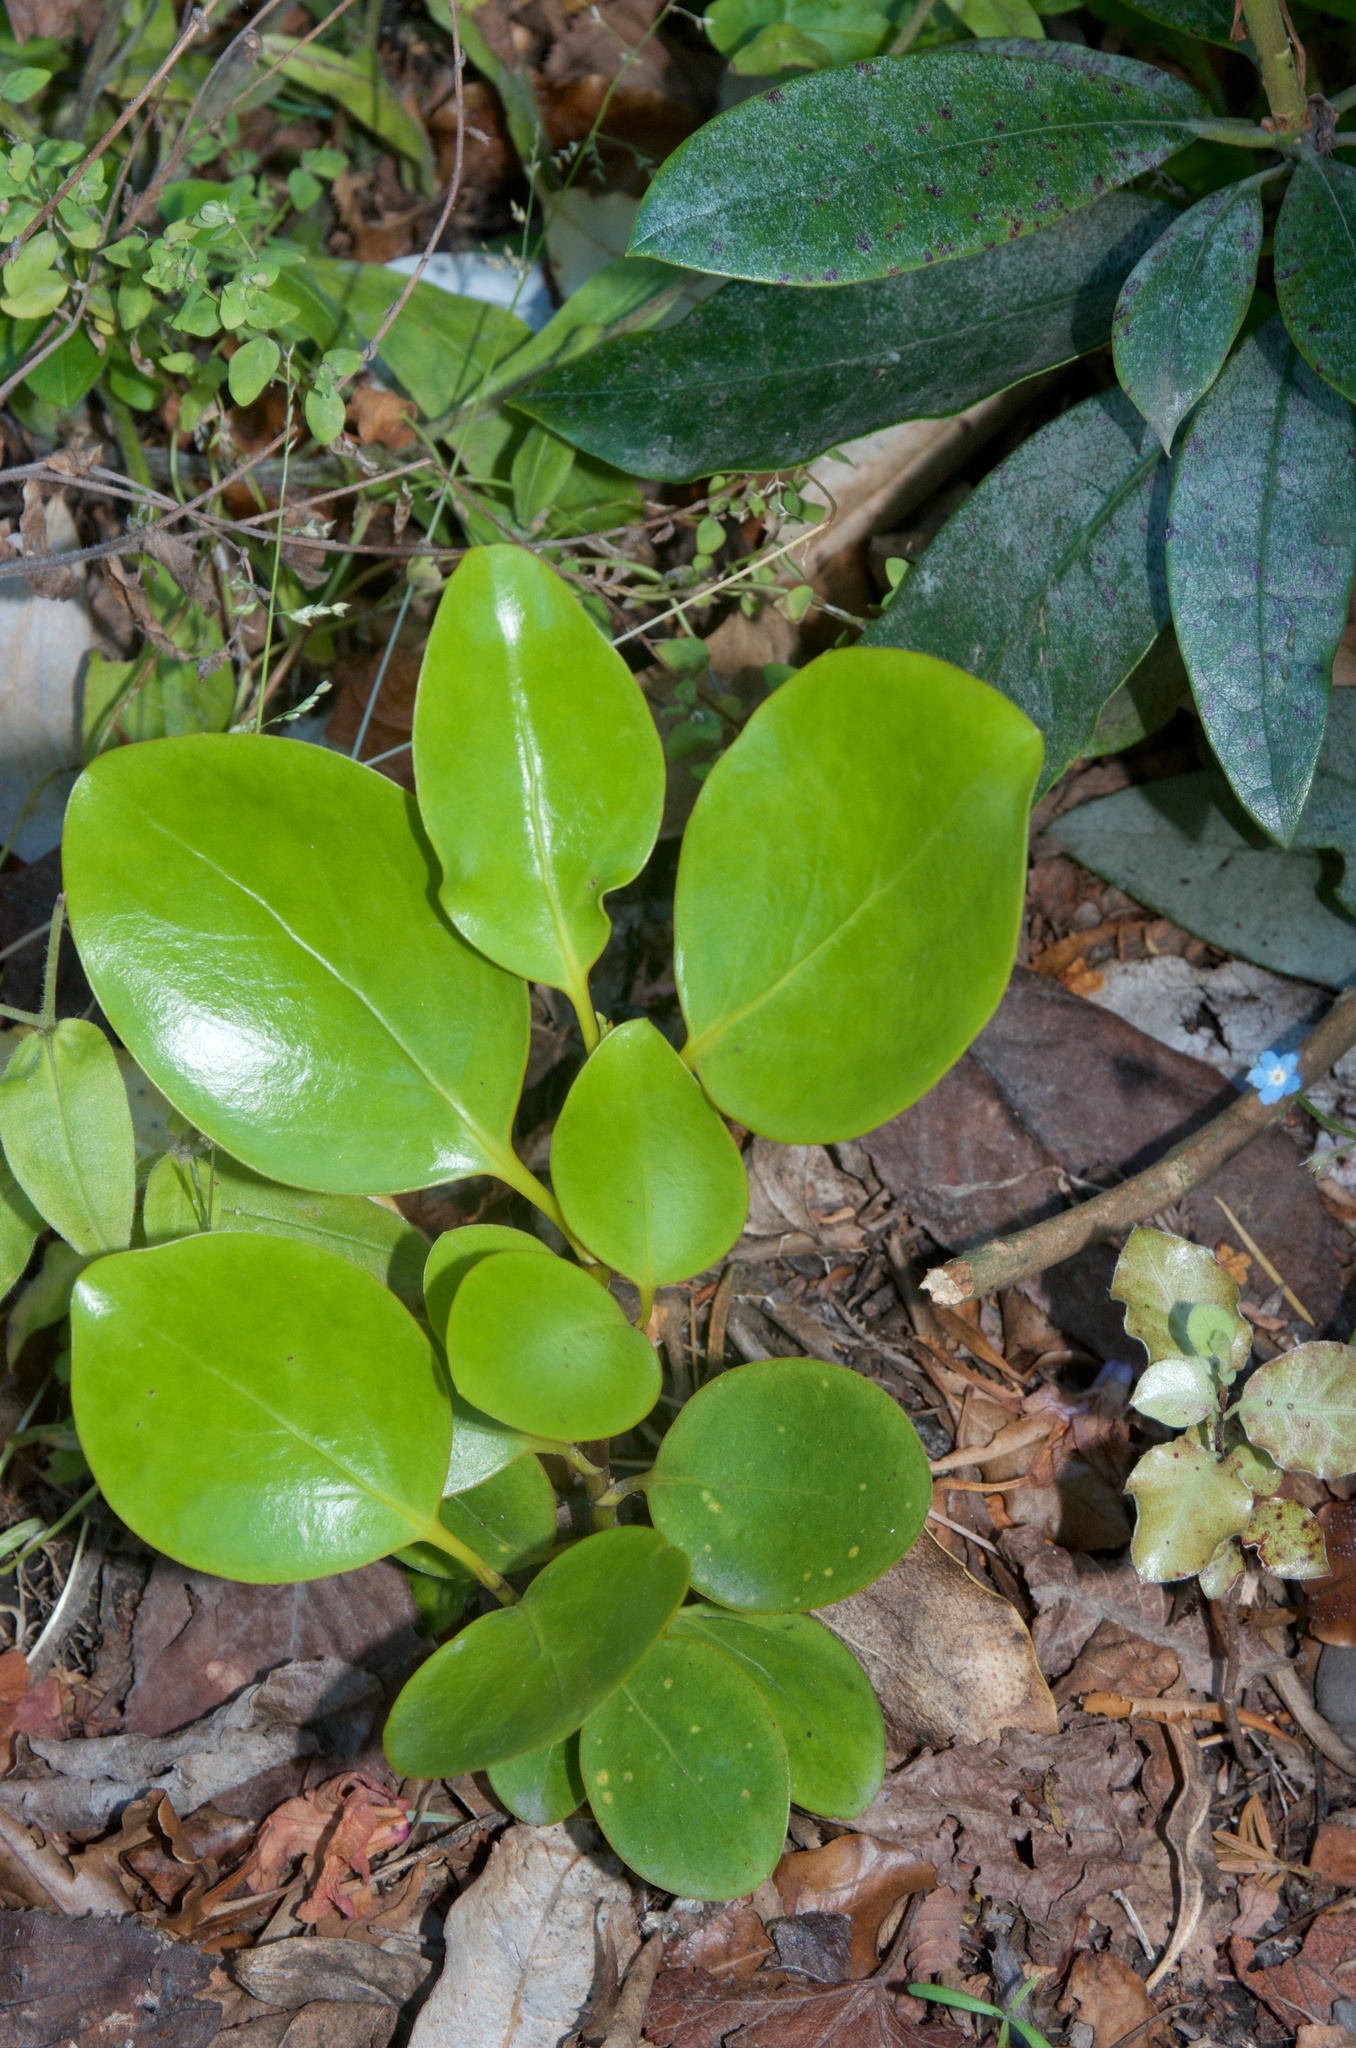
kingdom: Plantae
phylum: Tracheophyta
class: Magnoliopsida
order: Apiales
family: Griseliniaceae
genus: Griselinia
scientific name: Griselinia littoralis
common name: New zealand broadleaf
